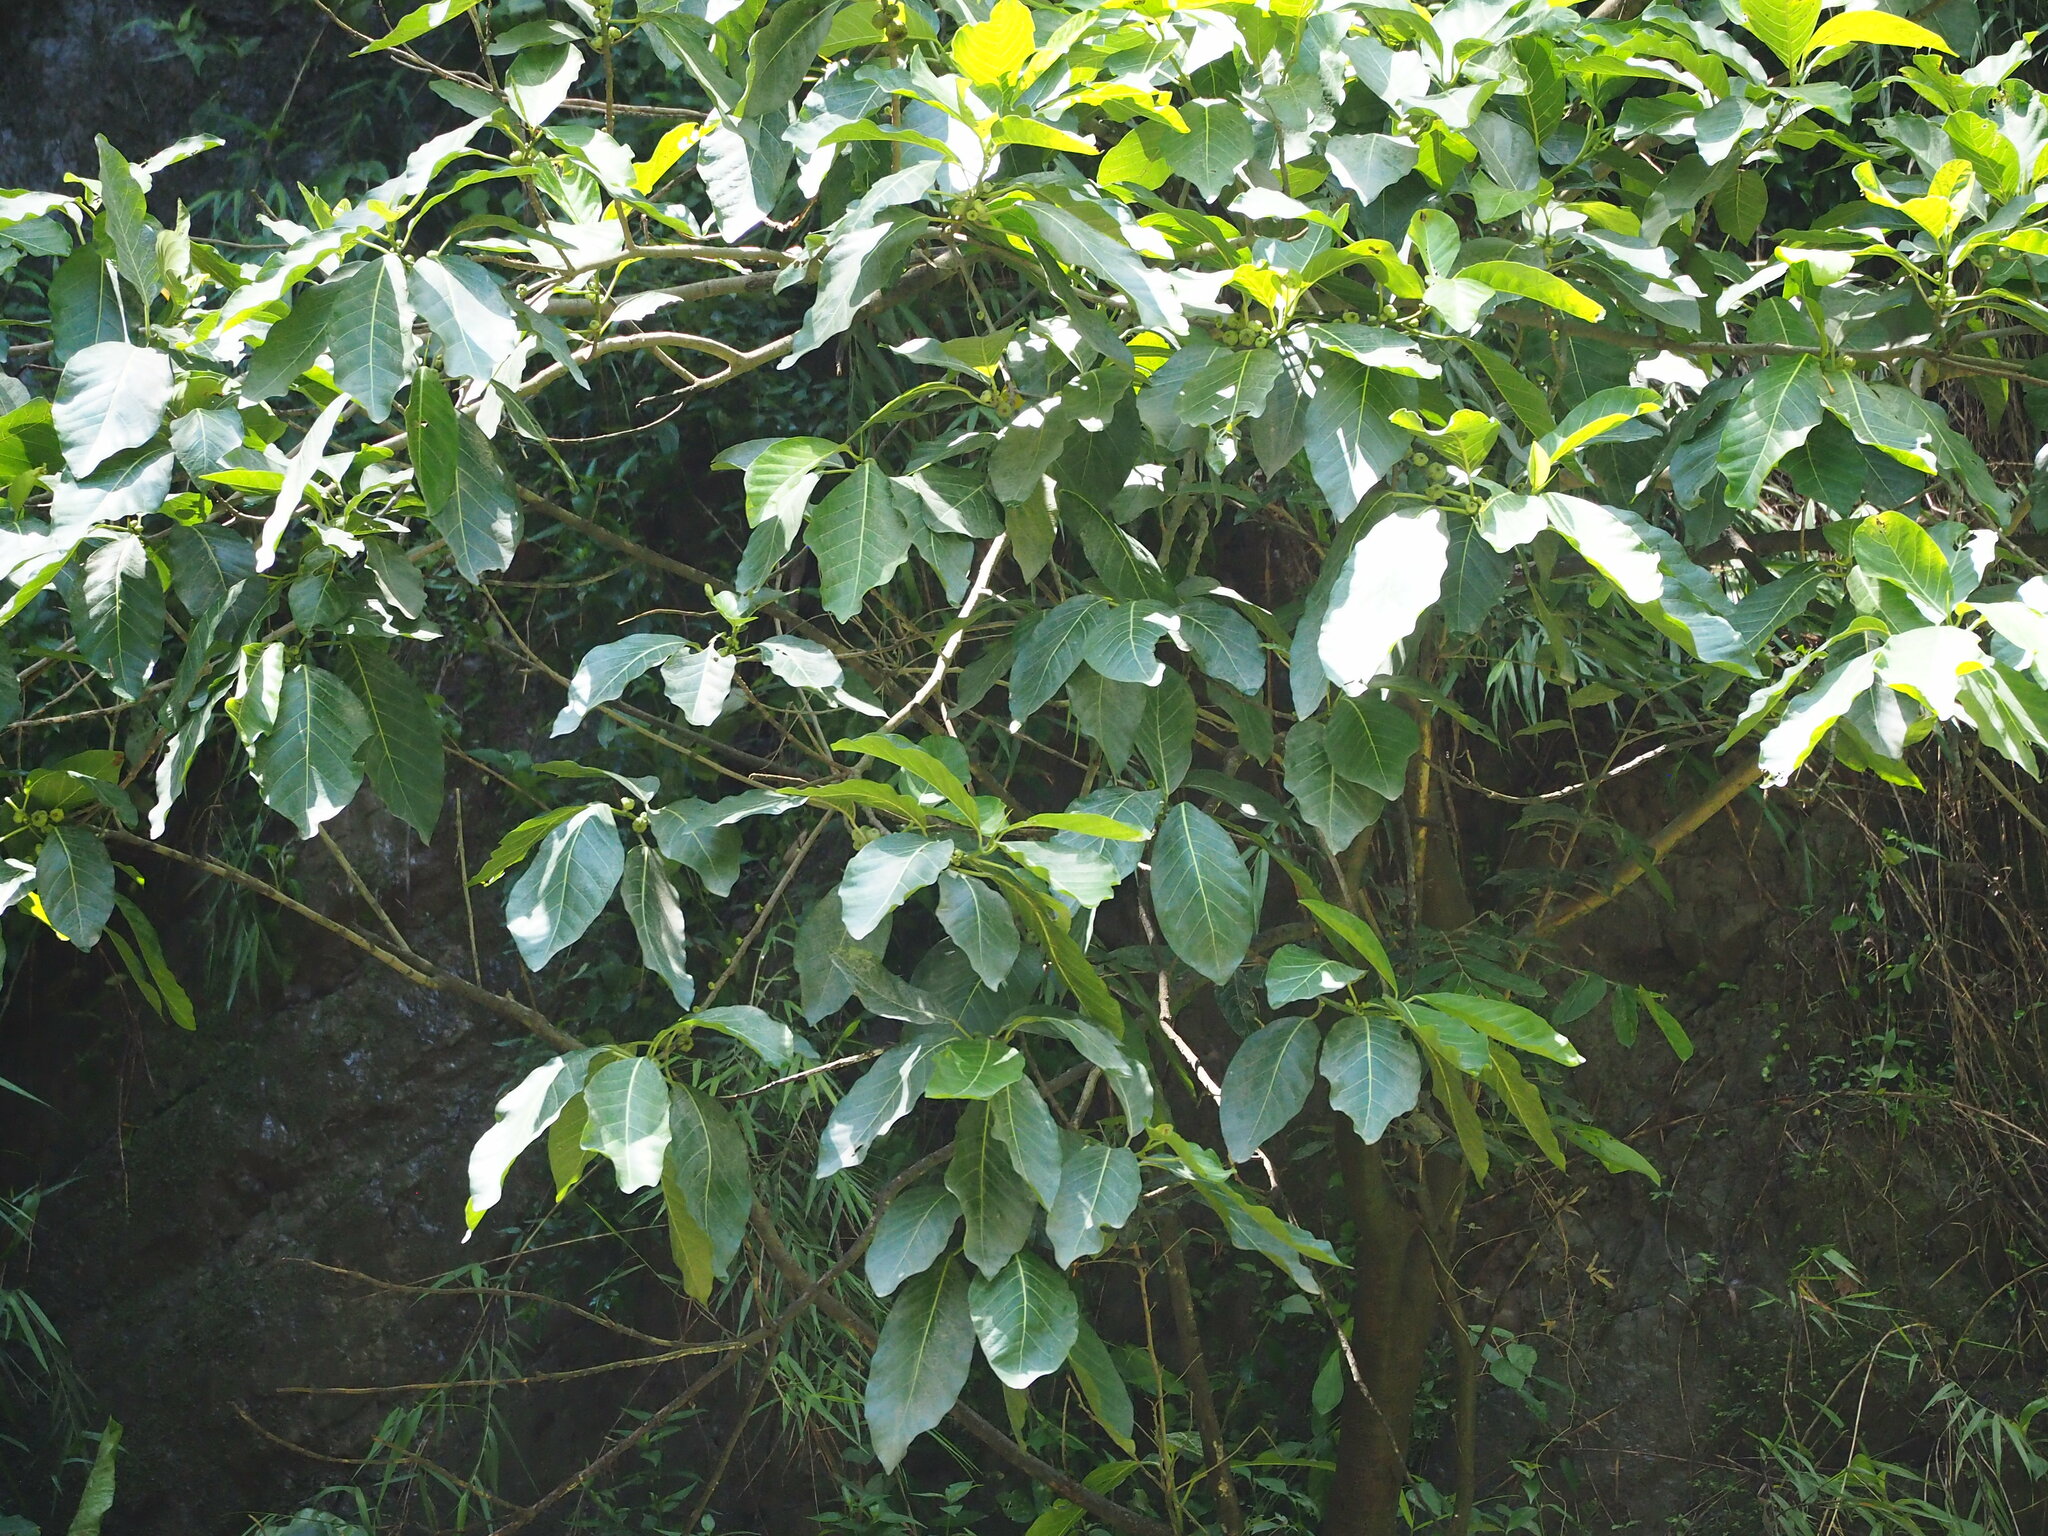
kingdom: Plantae
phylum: Tracheophyta
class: Magnoliopsida
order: Rosales
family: Moraceae
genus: Ficus
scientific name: Ficus septica
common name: Septic fig
